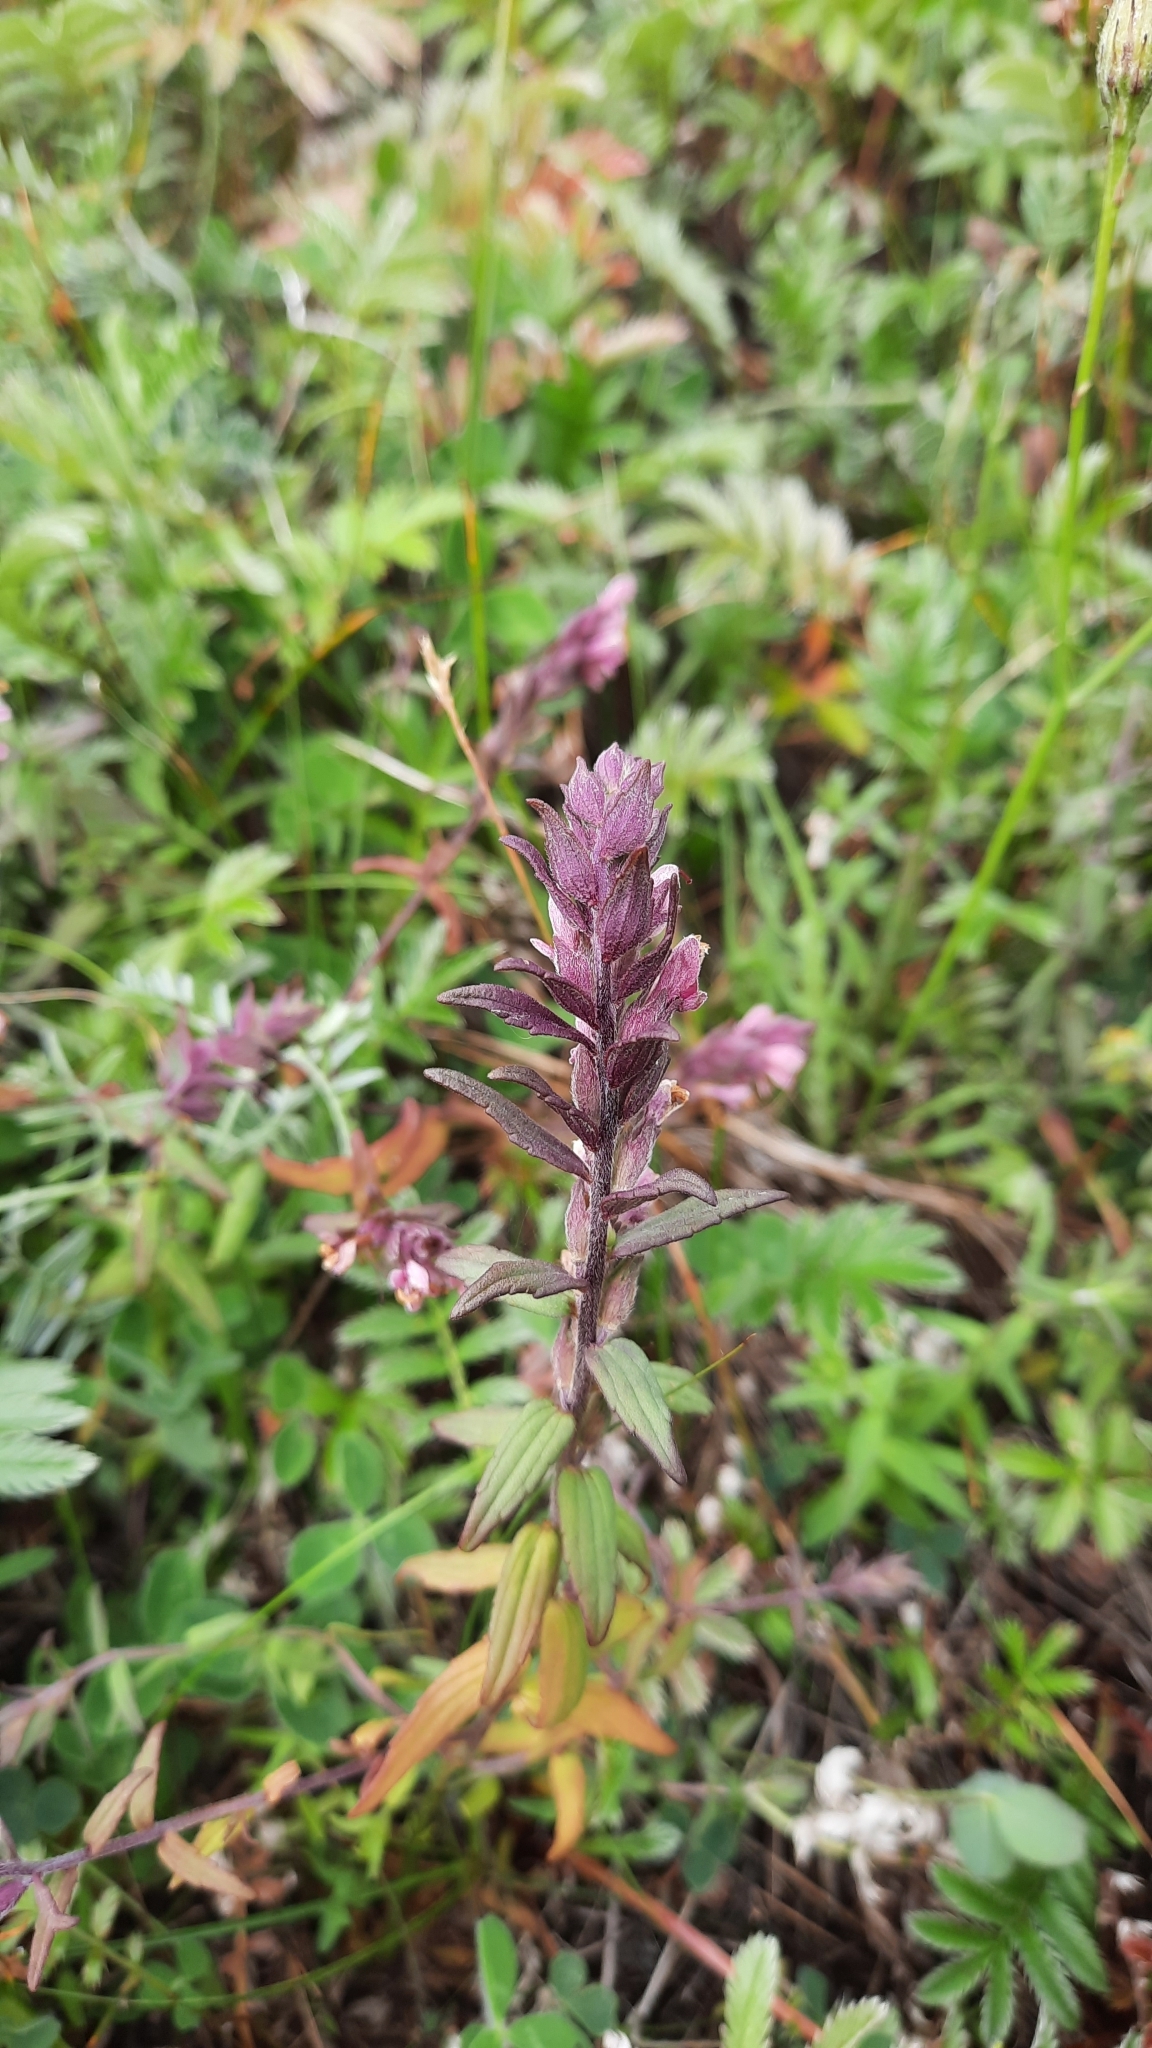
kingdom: Plantae
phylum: Tracheophyta
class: Magnoliopsida
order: Lamiales
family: Orobanchaceae
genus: Odontites
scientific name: Odontites vernus
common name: Red bartsia
